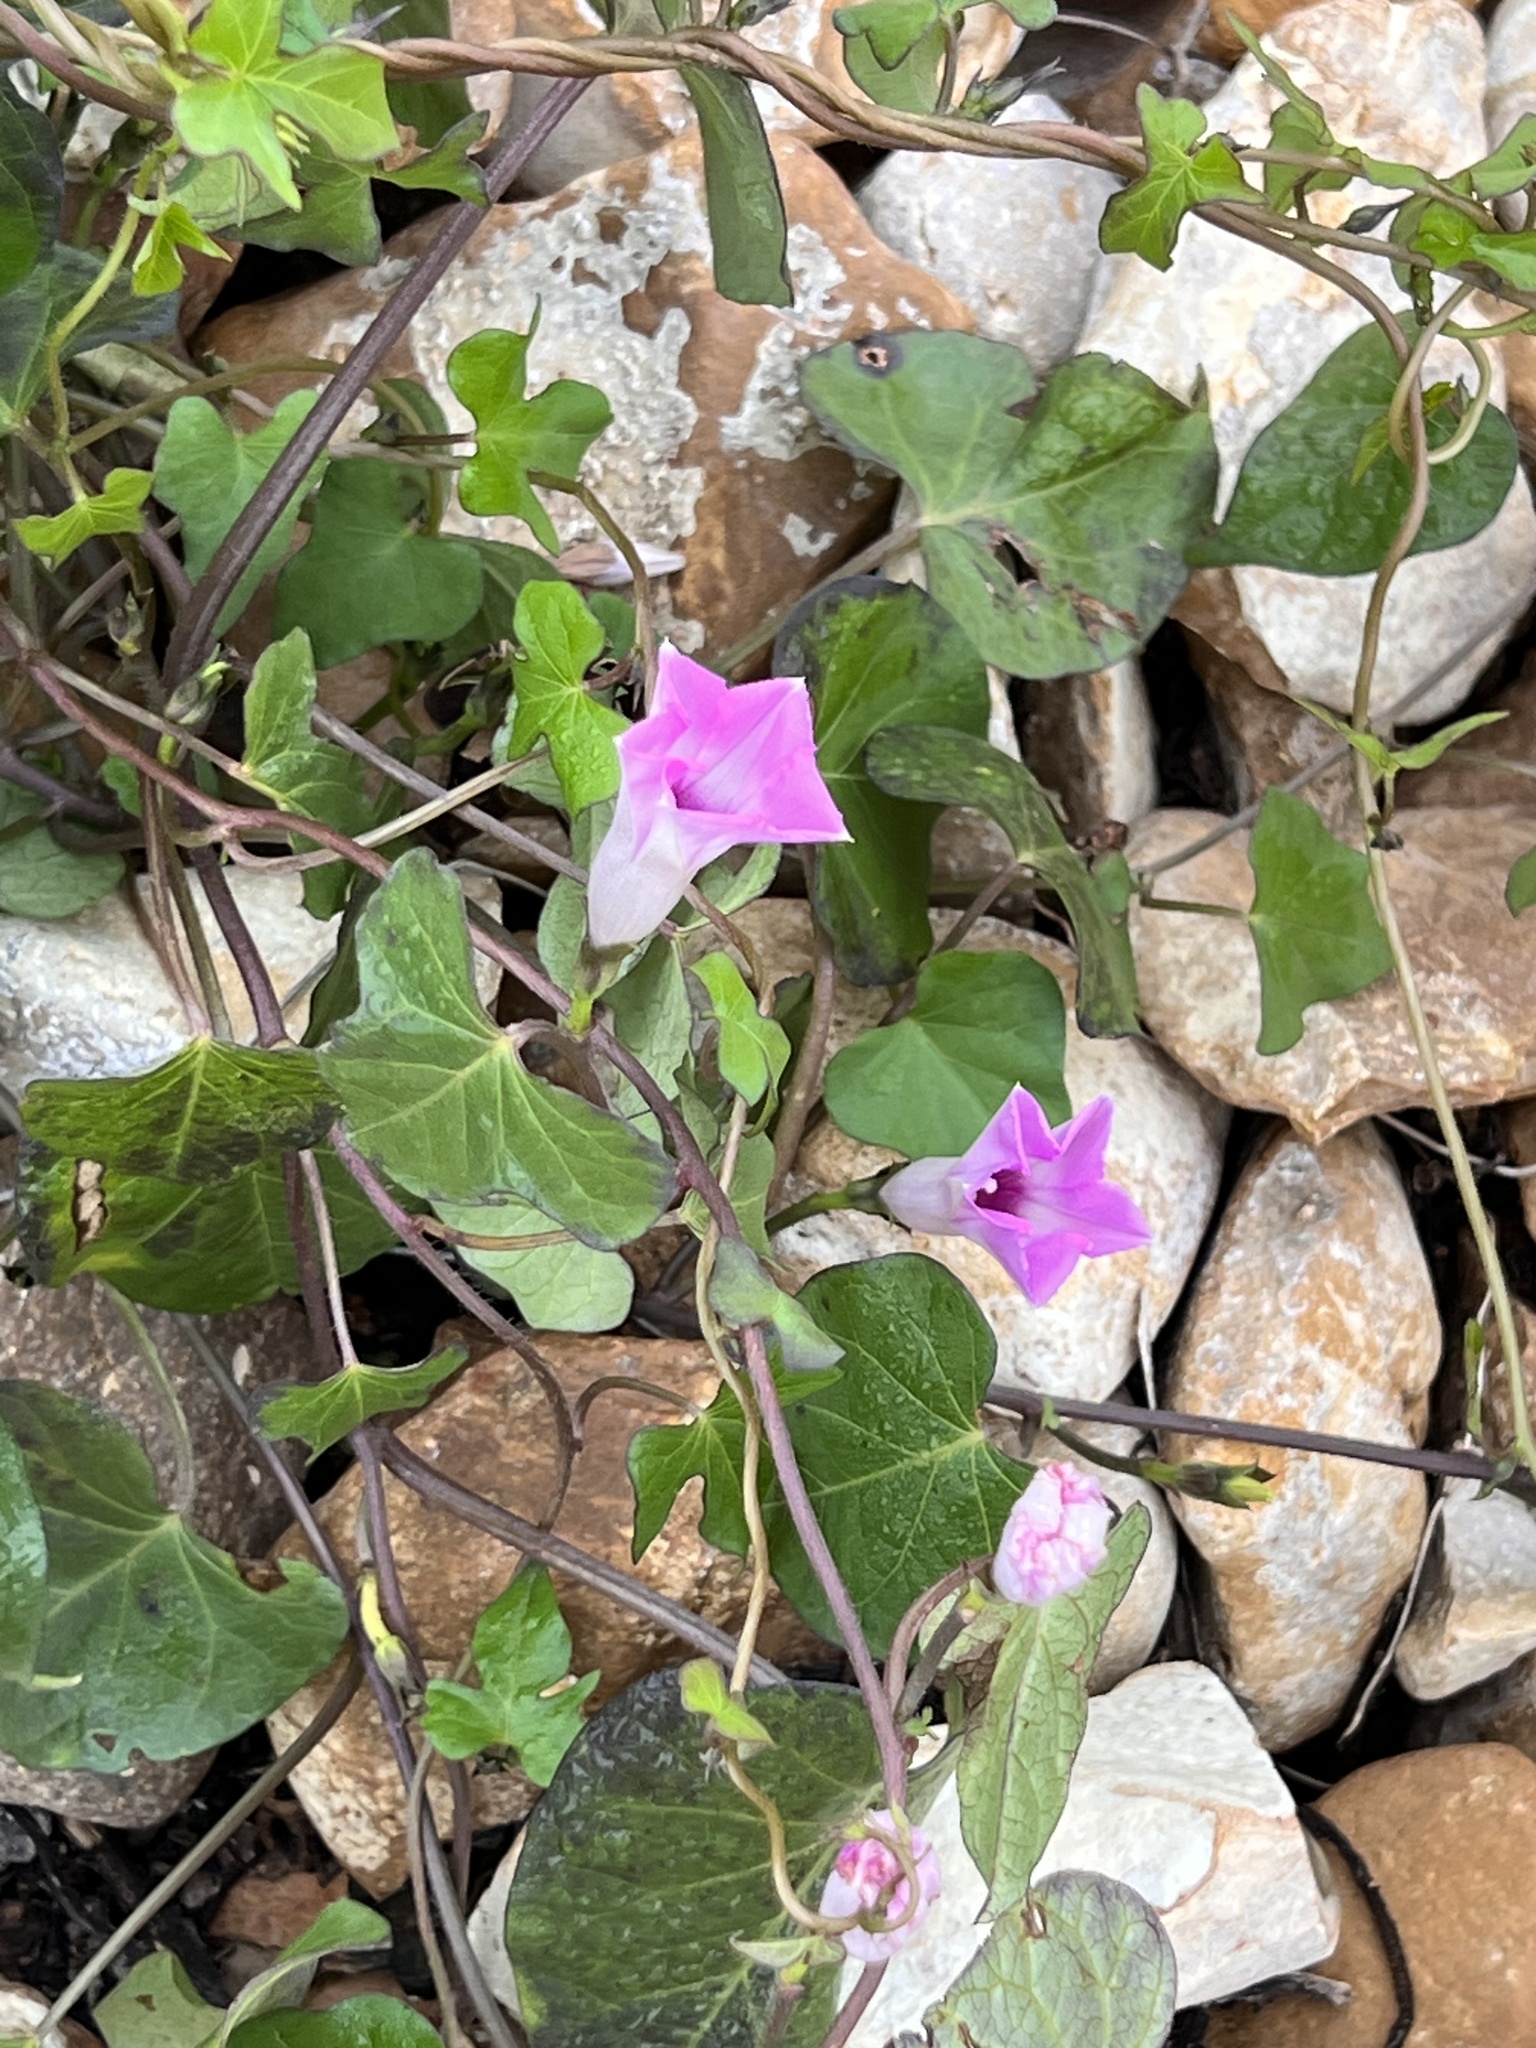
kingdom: Plantae
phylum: Tracheophyta
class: Magnoliopsida
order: Solanales
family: Convolvulaceae
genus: Ipomoea
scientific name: Ipomoea cordatotriloba
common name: Cotton morning glory
